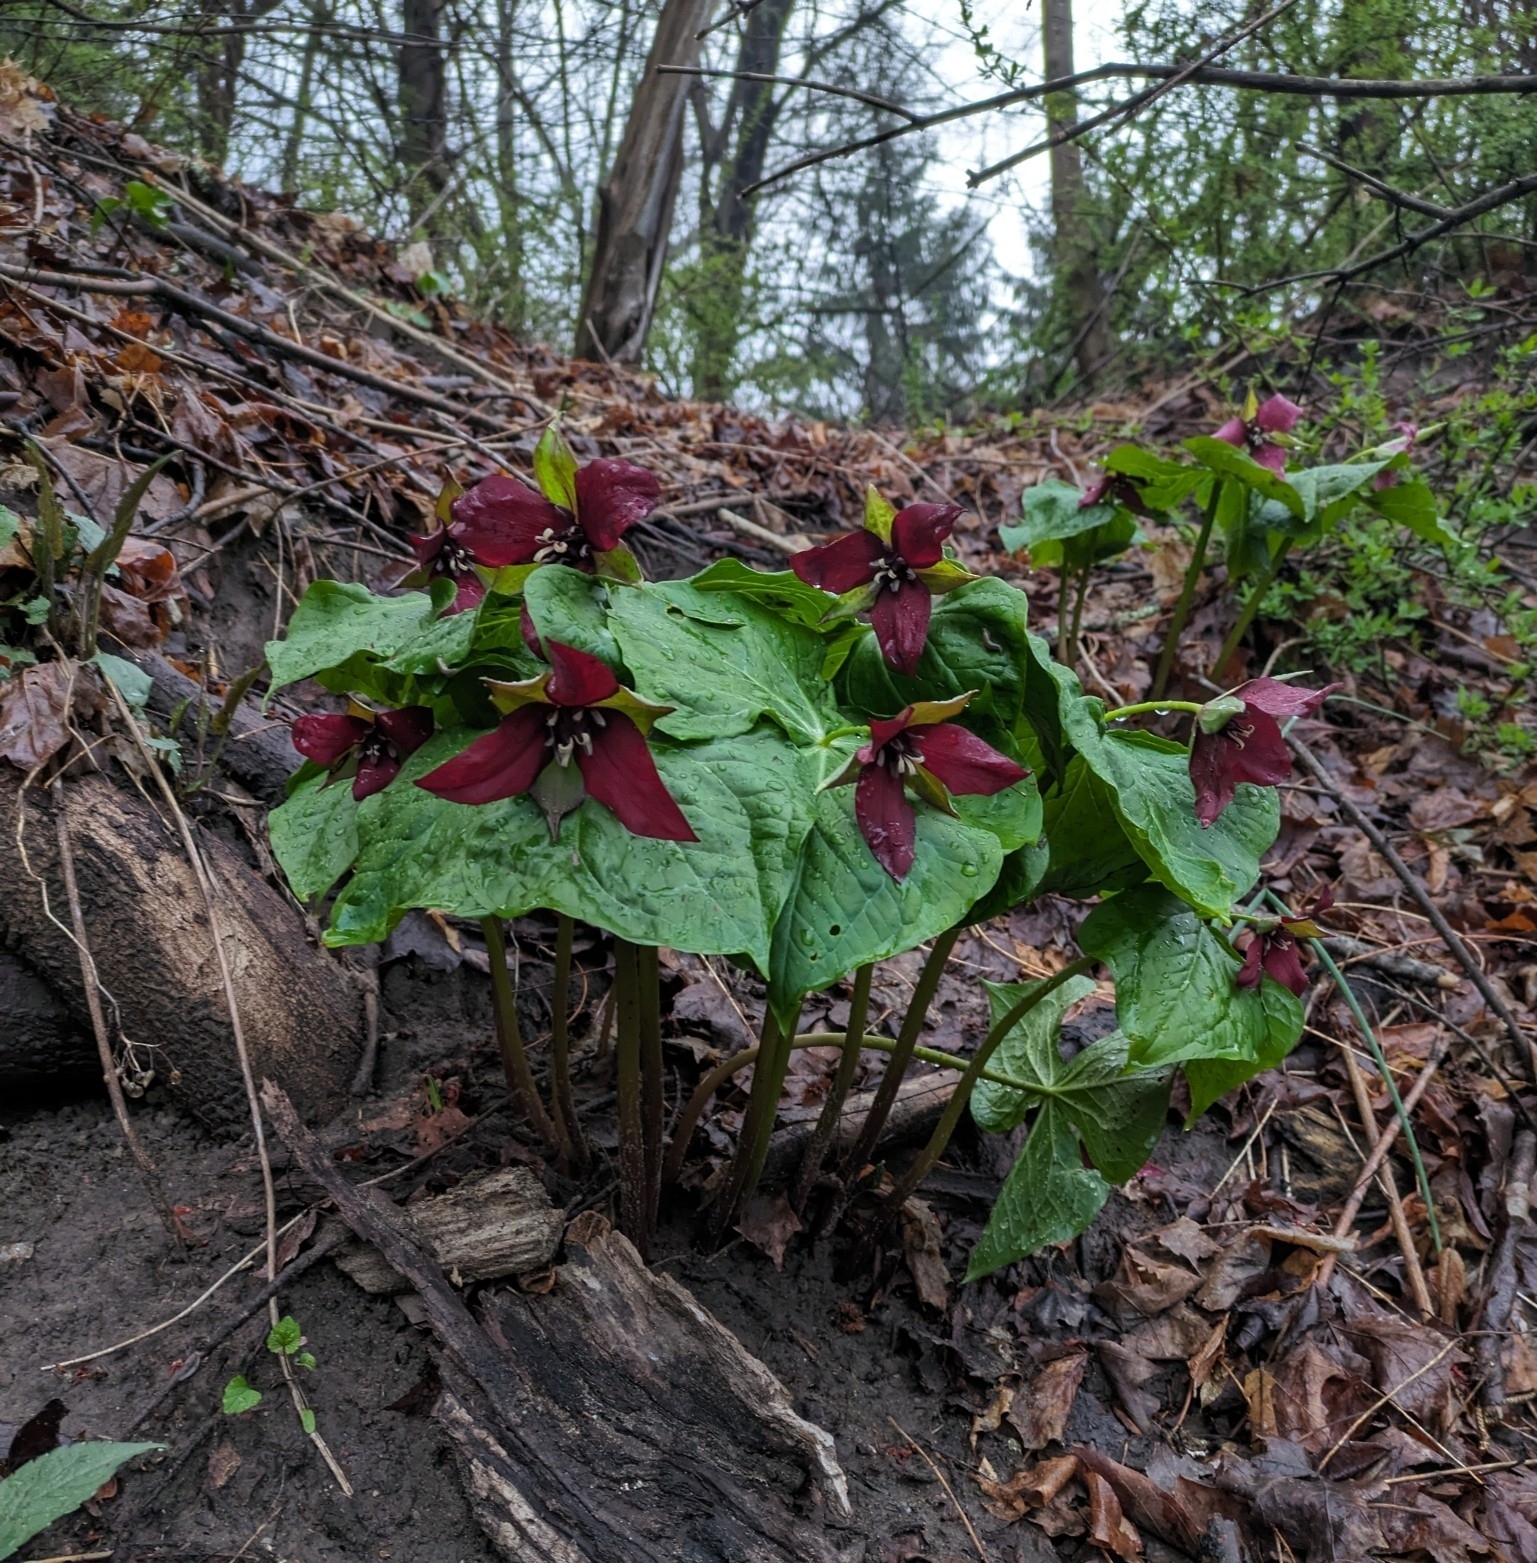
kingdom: Plantae
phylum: Tracheophyta
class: Liliopsida
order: Liliales
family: Melanthiaceae
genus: Trillium
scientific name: Trillium erectum
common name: Purple trillium
